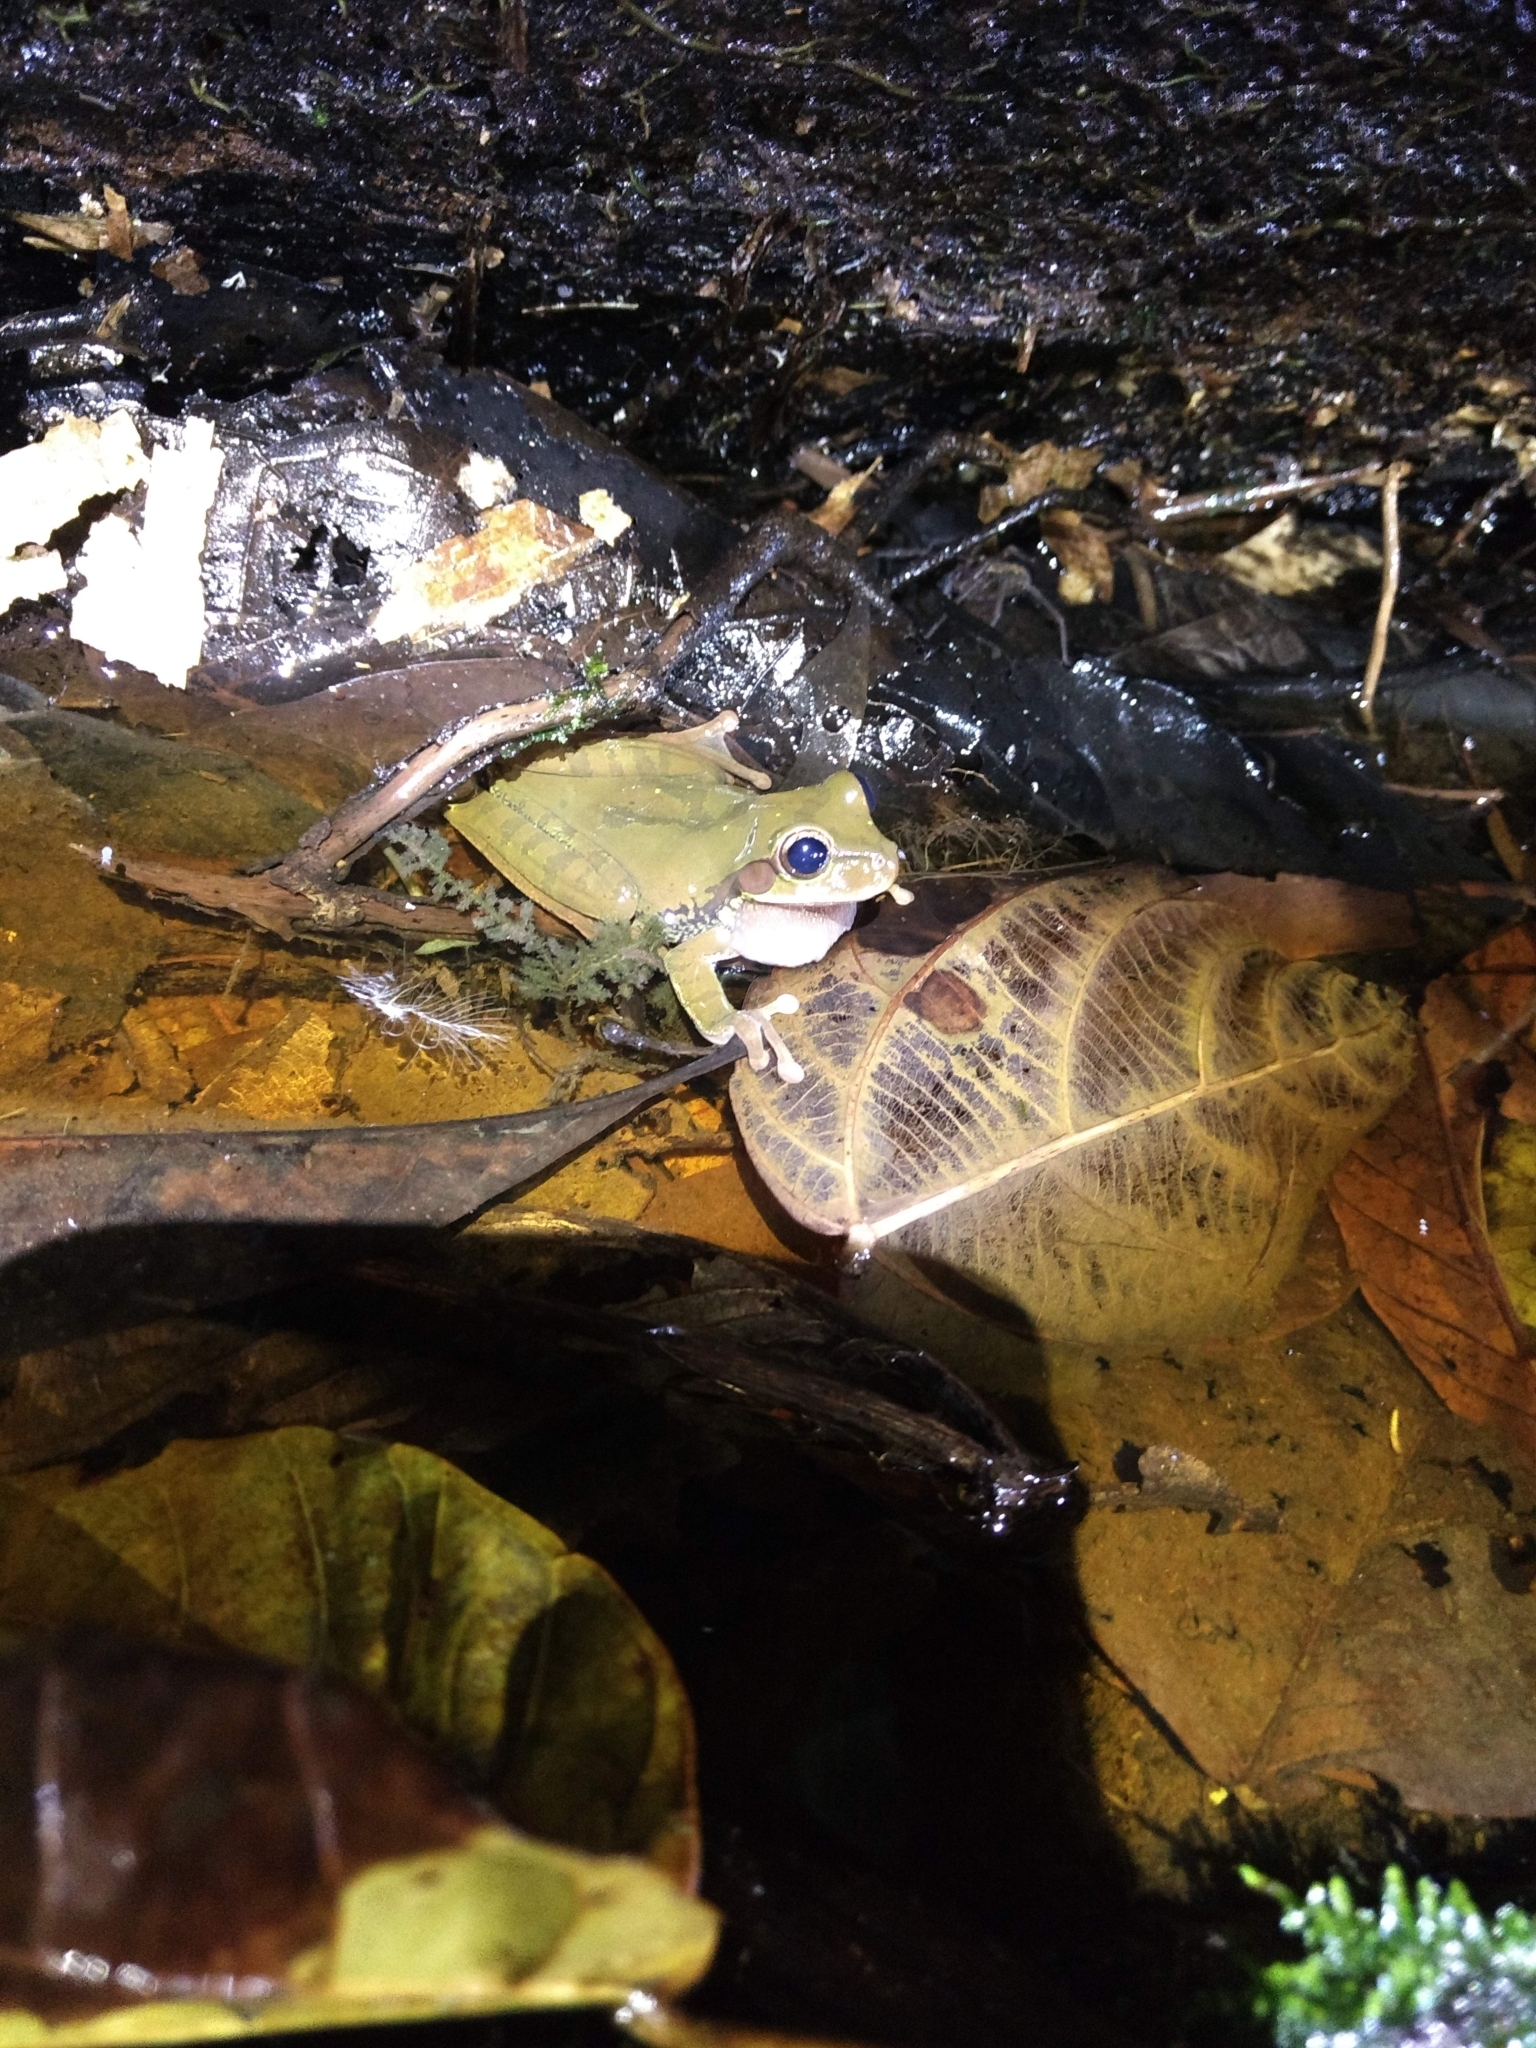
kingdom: Animalia
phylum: Chordata
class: Amphibia
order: Anura
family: Hylidae
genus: Smilisca
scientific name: Smilisca baudinii
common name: Mexican smilisca
